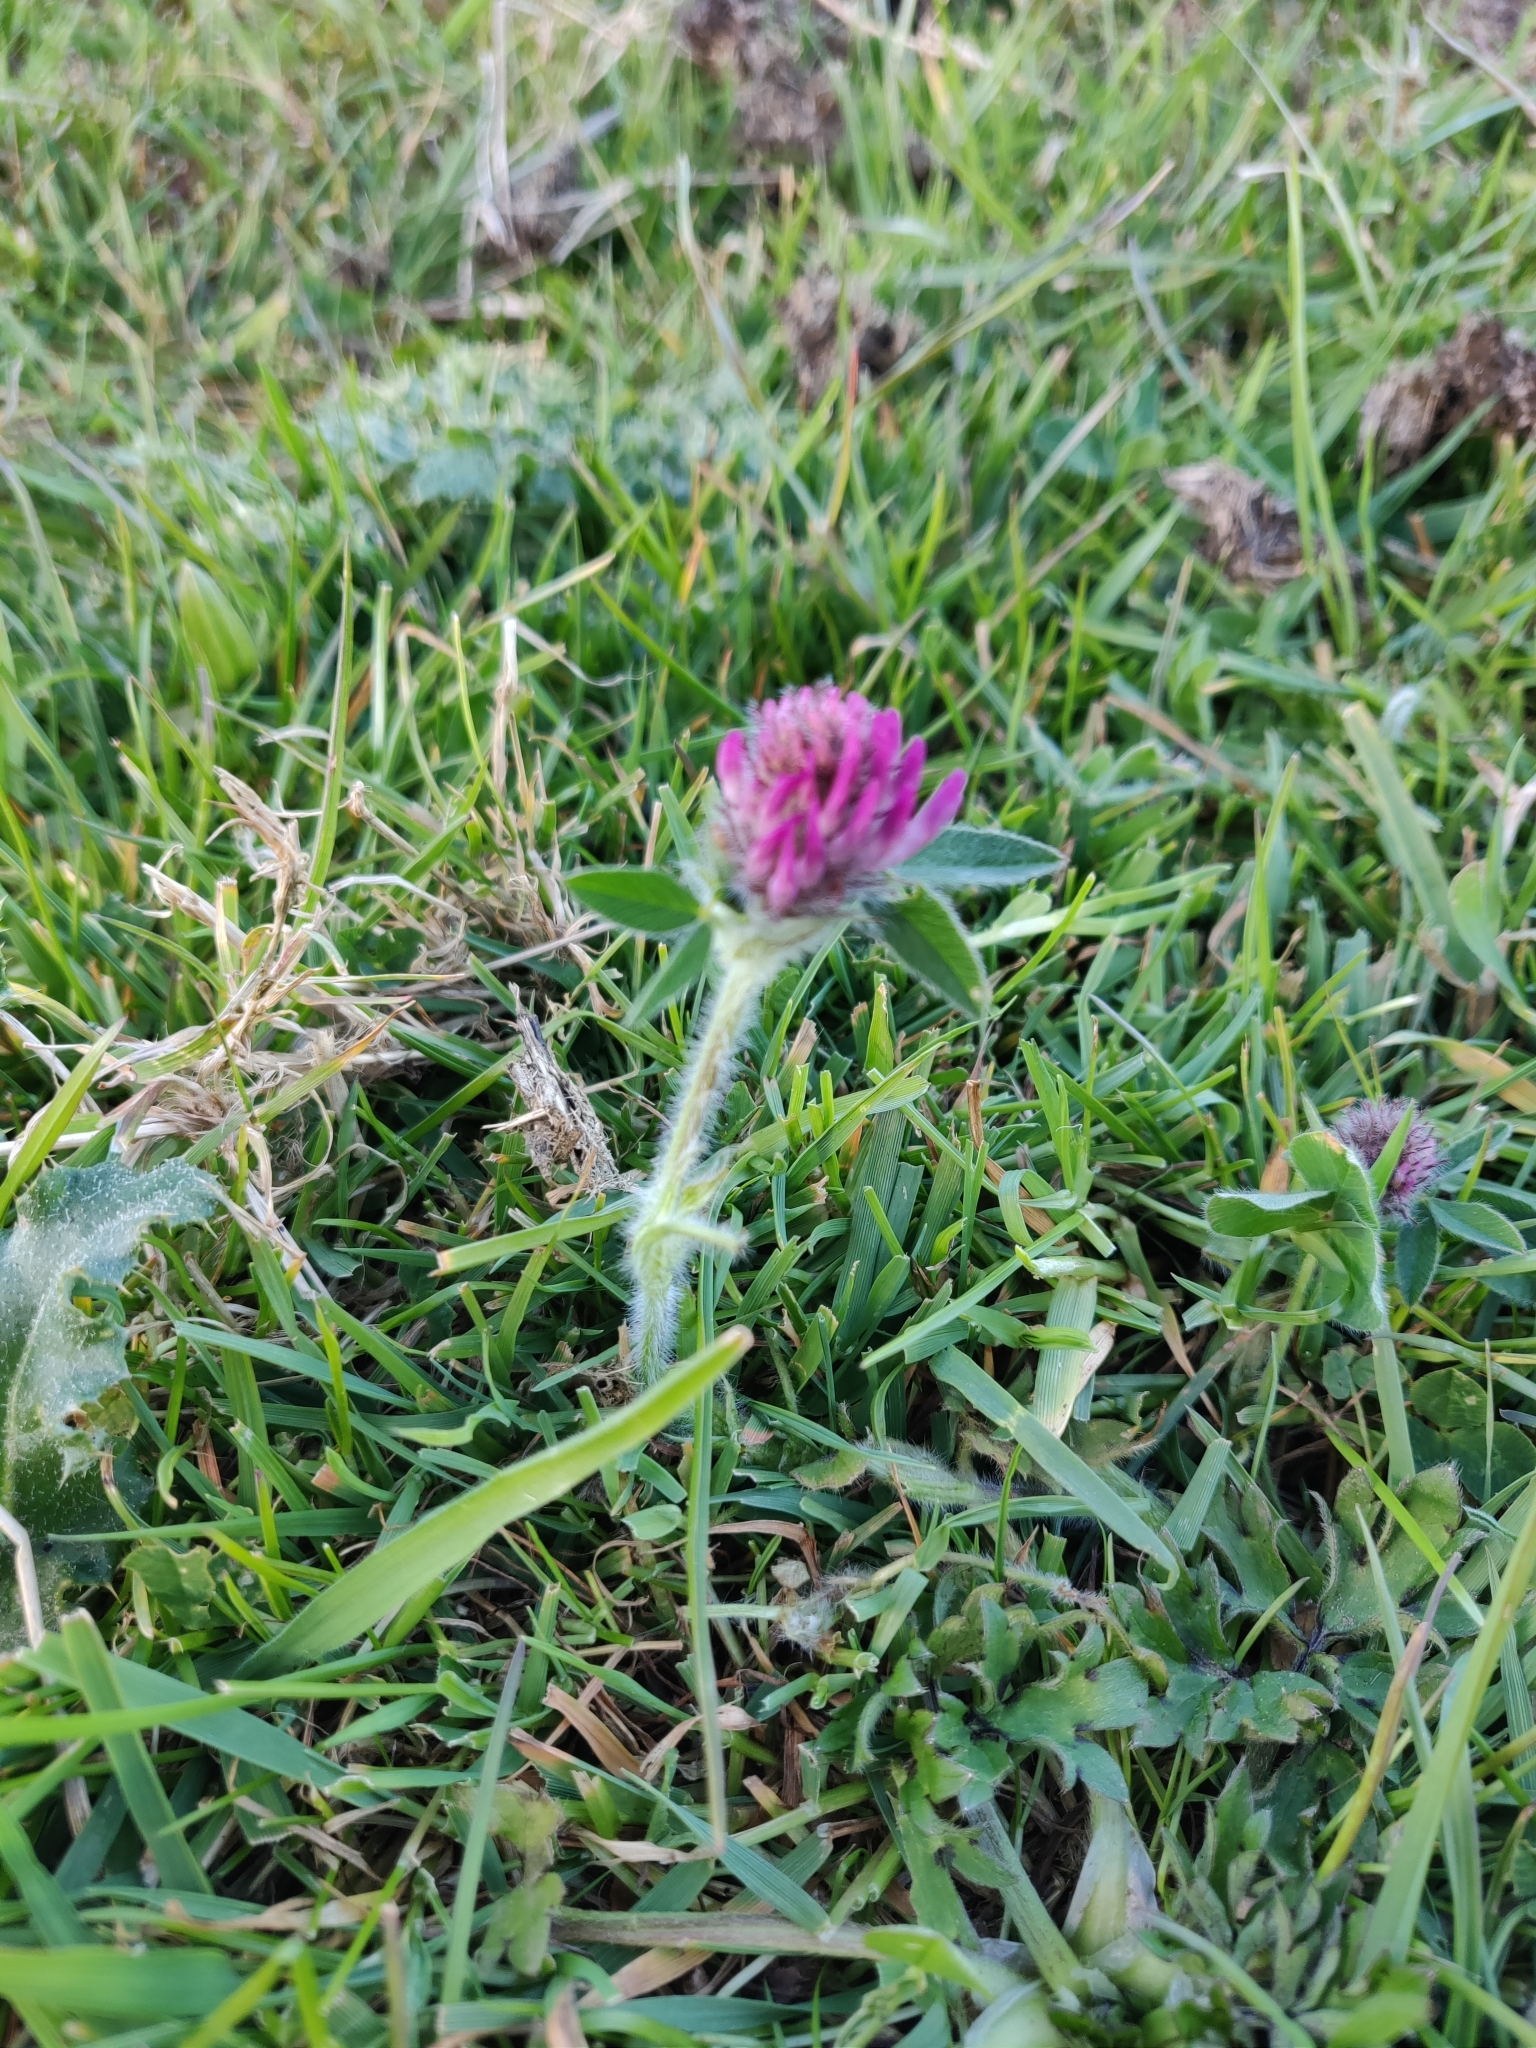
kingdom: Plantae
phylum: Tracheophyta
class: Magnoliopsida
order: Fabales
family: Fabaceae
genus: Trifolium
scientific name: Trifolium pratense
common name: Red clover
